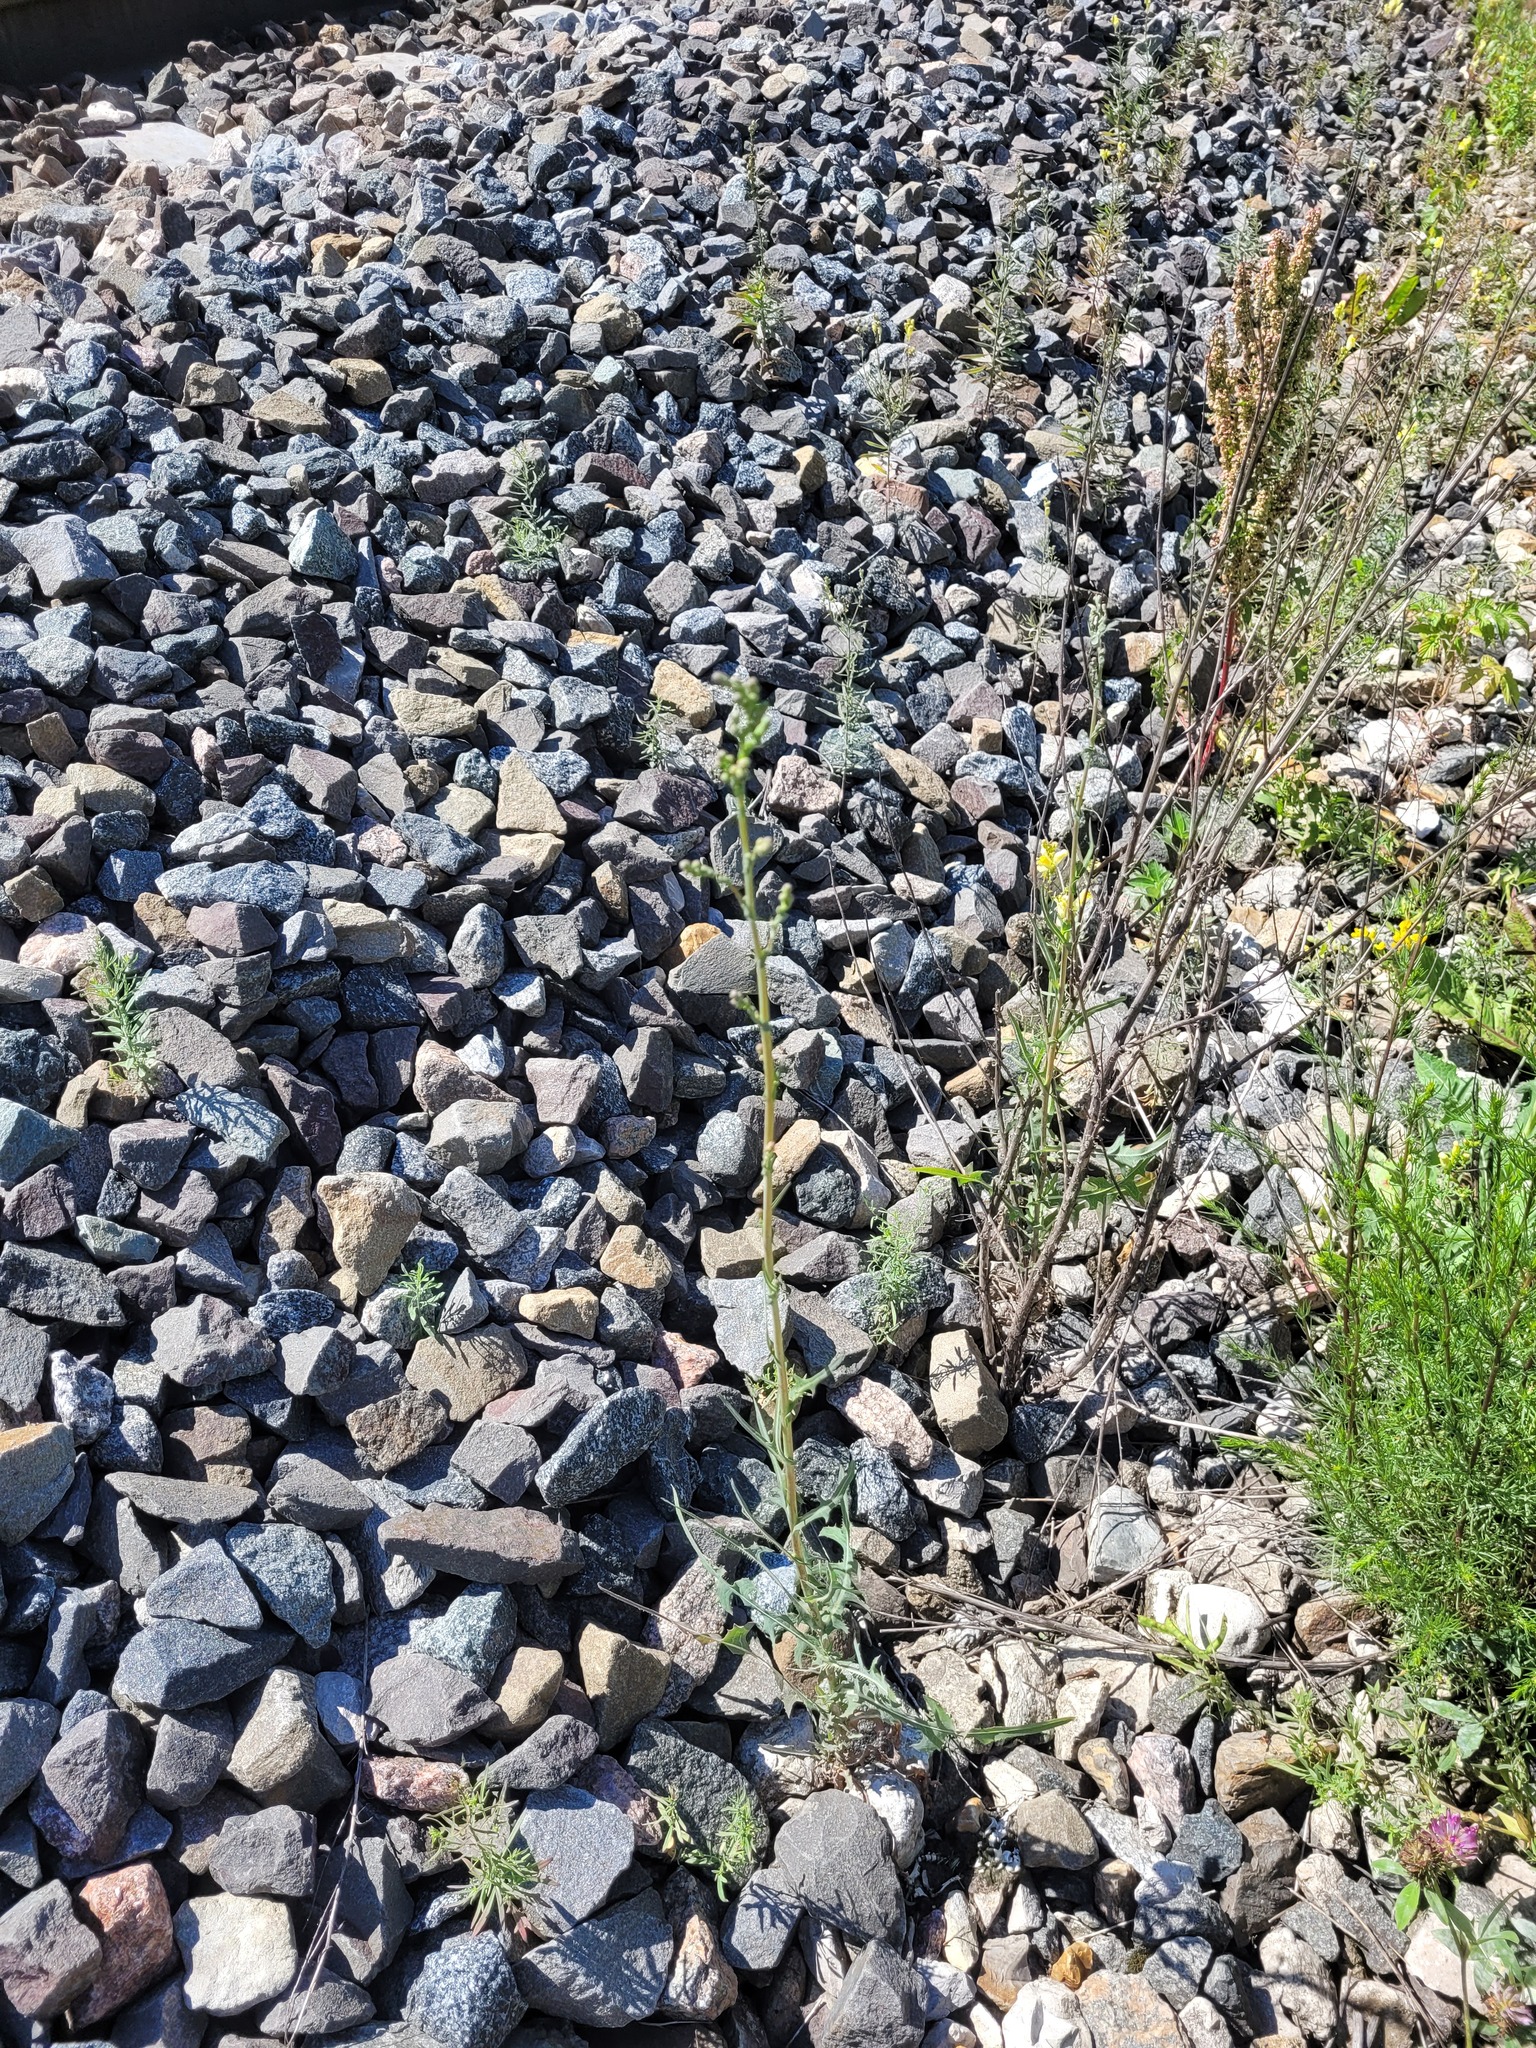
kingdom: Plantae
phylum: Tracheophyta
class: Magnoliopsida
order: Asterales
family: Asteraceae
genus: Lactuca
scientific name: Lactuca serriola
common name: Prickly lettuce
